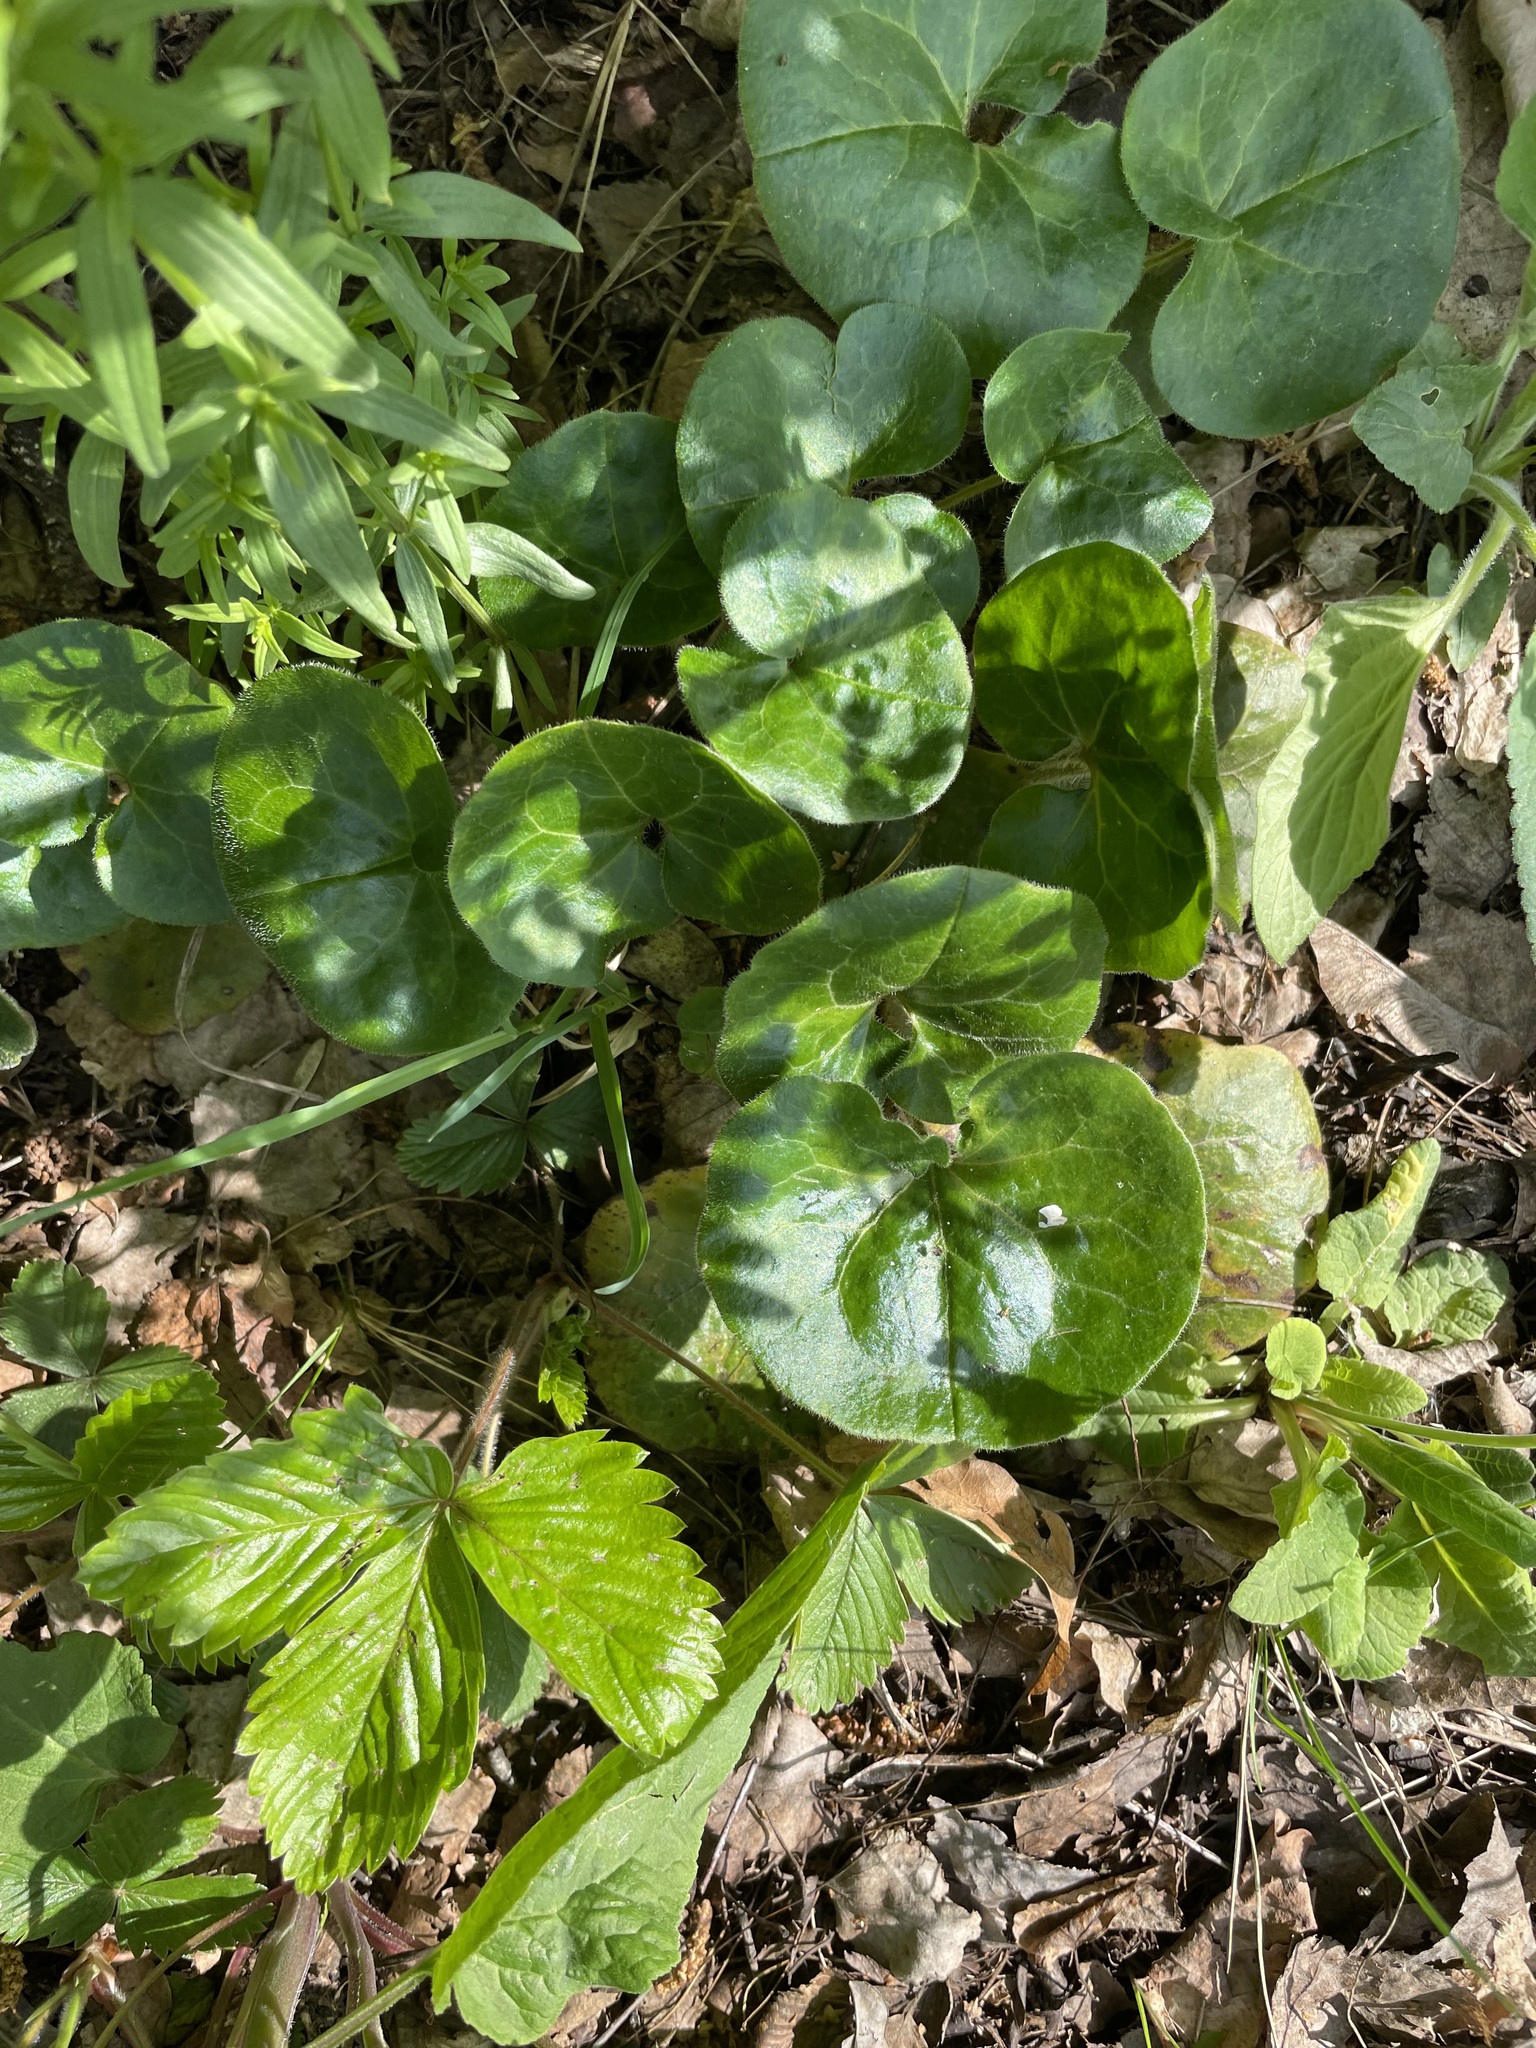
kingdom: Plantae
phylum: Tracheophyta
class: Magnoliopsida
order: Piperales
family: Aristolochiaceae
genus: Asarum
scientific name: Asarum europaeum
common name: Asarabacca
